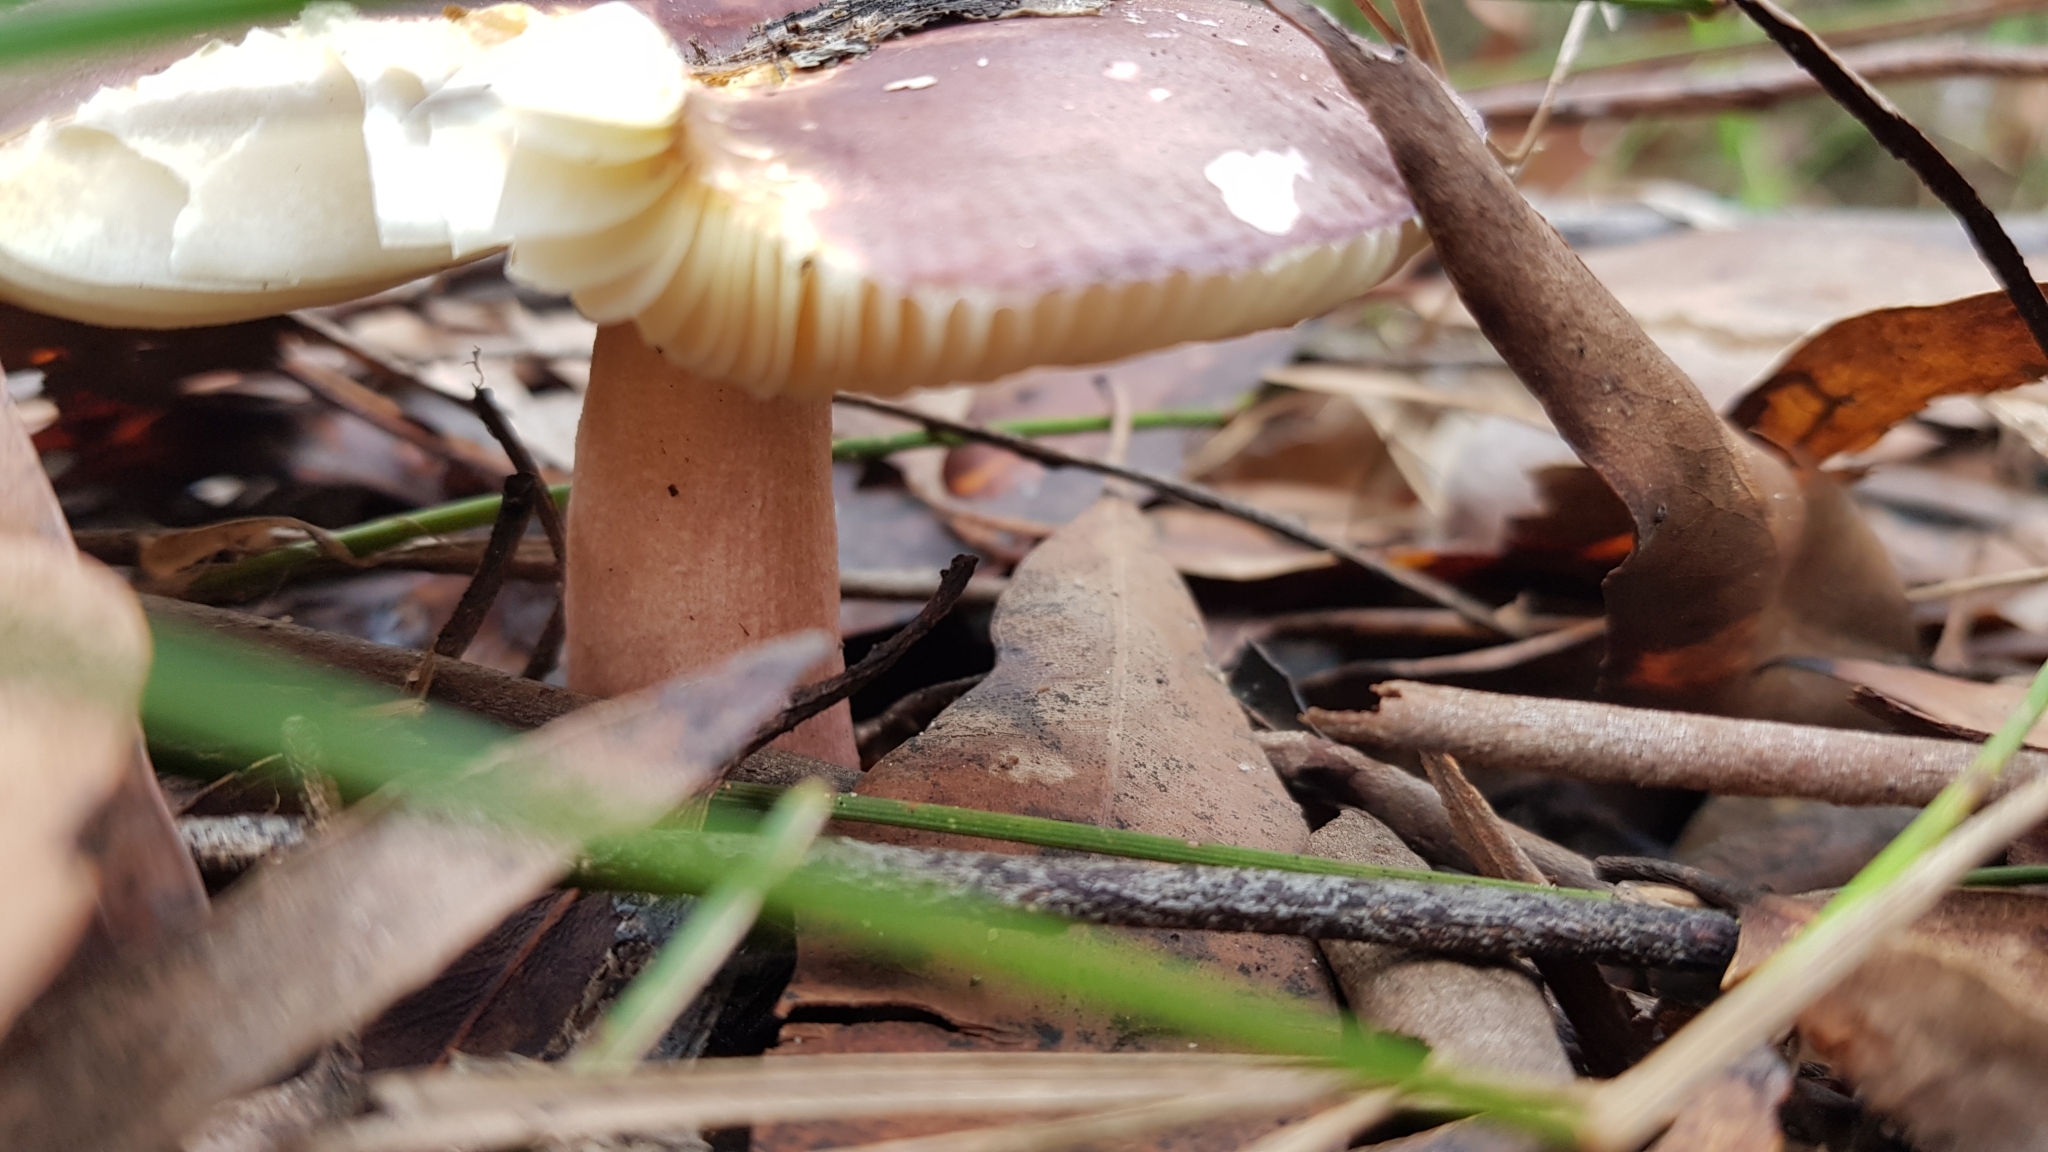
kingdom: Fungi
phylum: Basidiomycota
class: Agaricomycetes
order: Russulales
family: Russulaceae
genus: Russula
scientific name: Russula lenkunya
